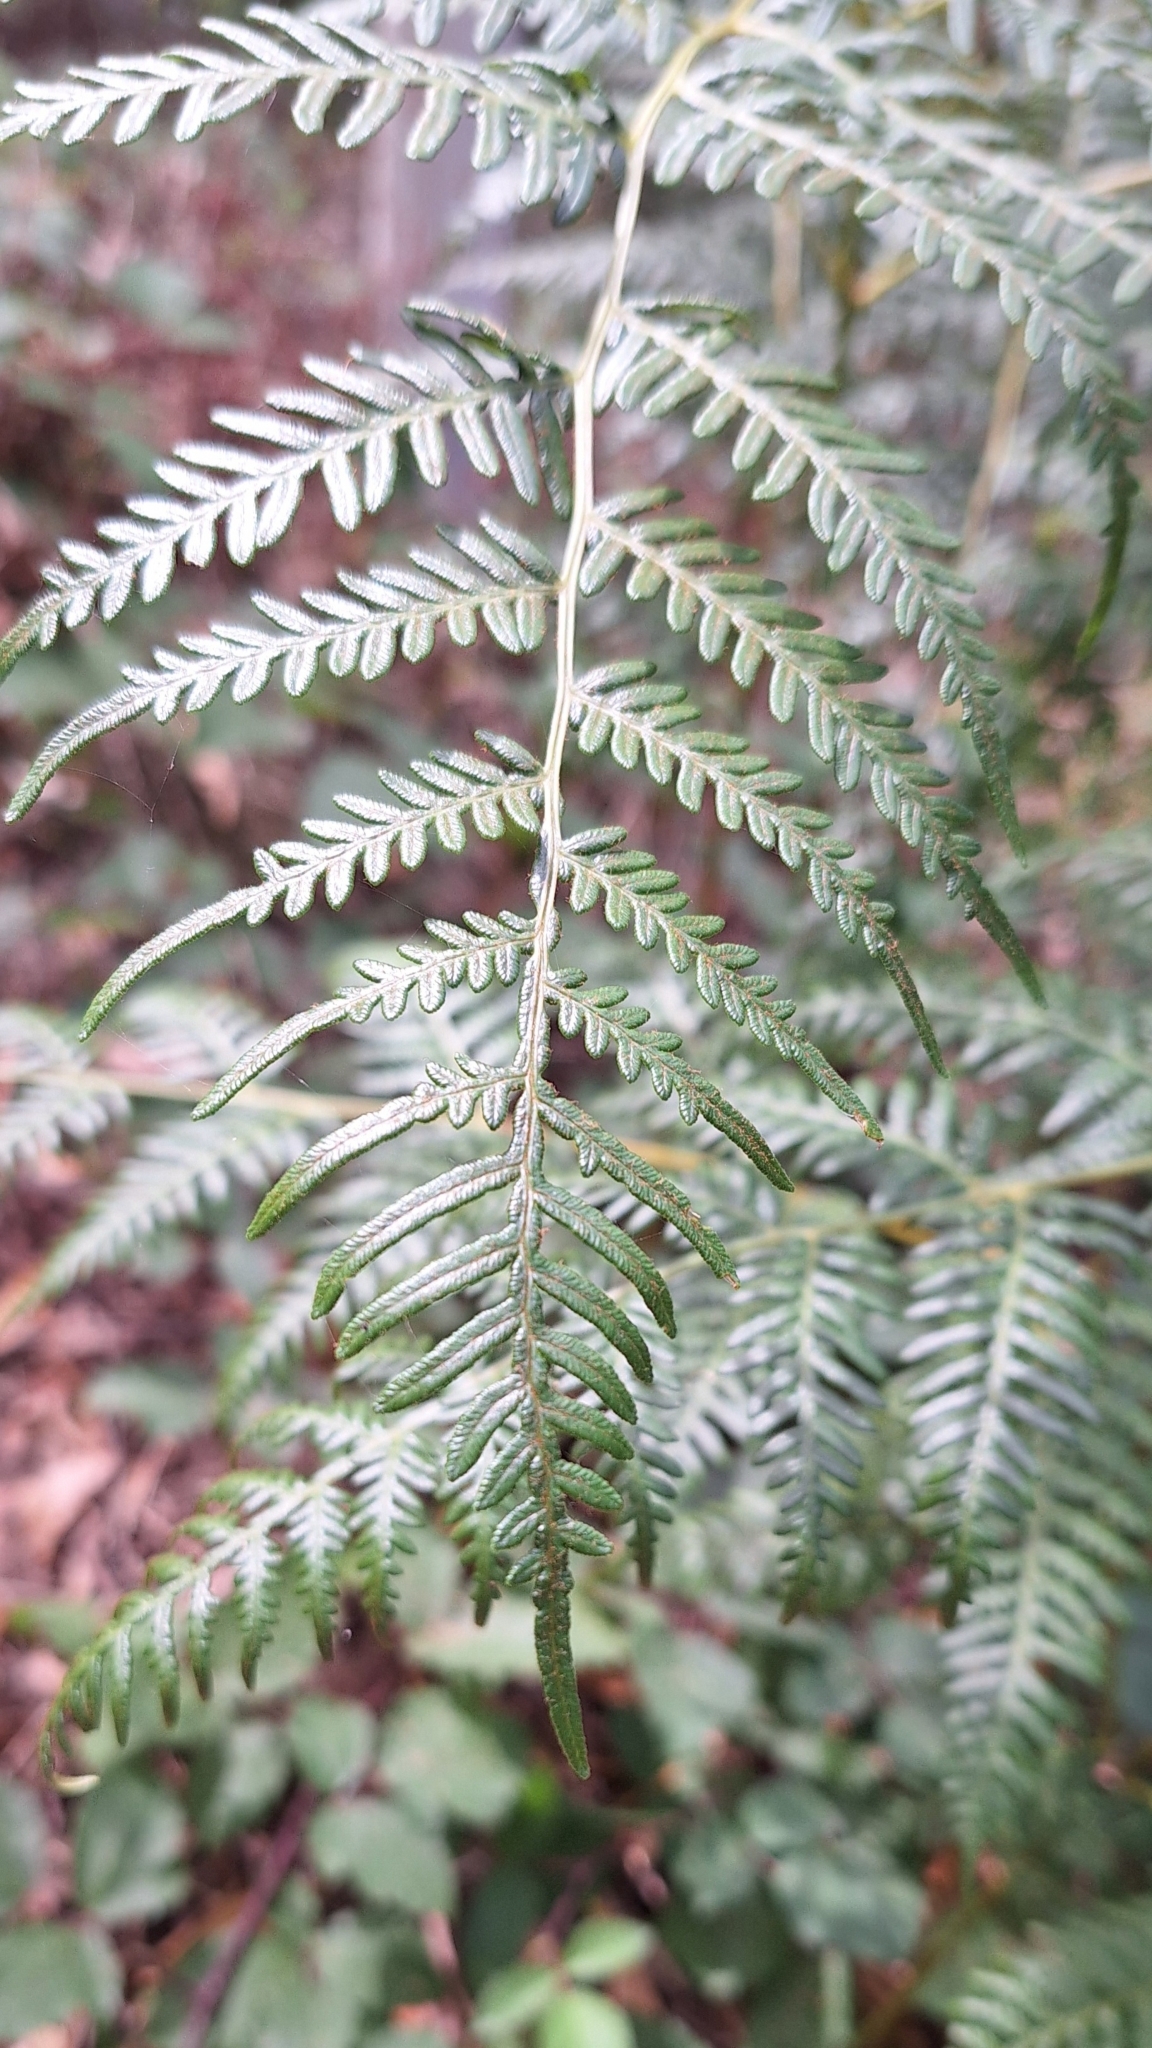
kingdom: Plantae
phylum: Tracheophyta
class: Polypodiopsida
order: Polypodiales
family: Dennstaedtiaceae
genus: Pteridium
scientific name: Pteridium esculentum
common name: Bracken fern
